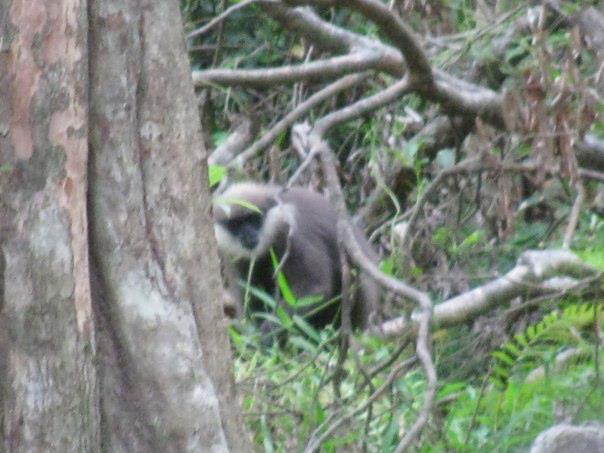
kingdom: Animalia
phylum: Chordata
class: Mammalia
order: Primates
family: Cercopithecidae
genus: Semnopithecus
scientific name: Semnopithecus vetulus
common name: Purple-faced langur
